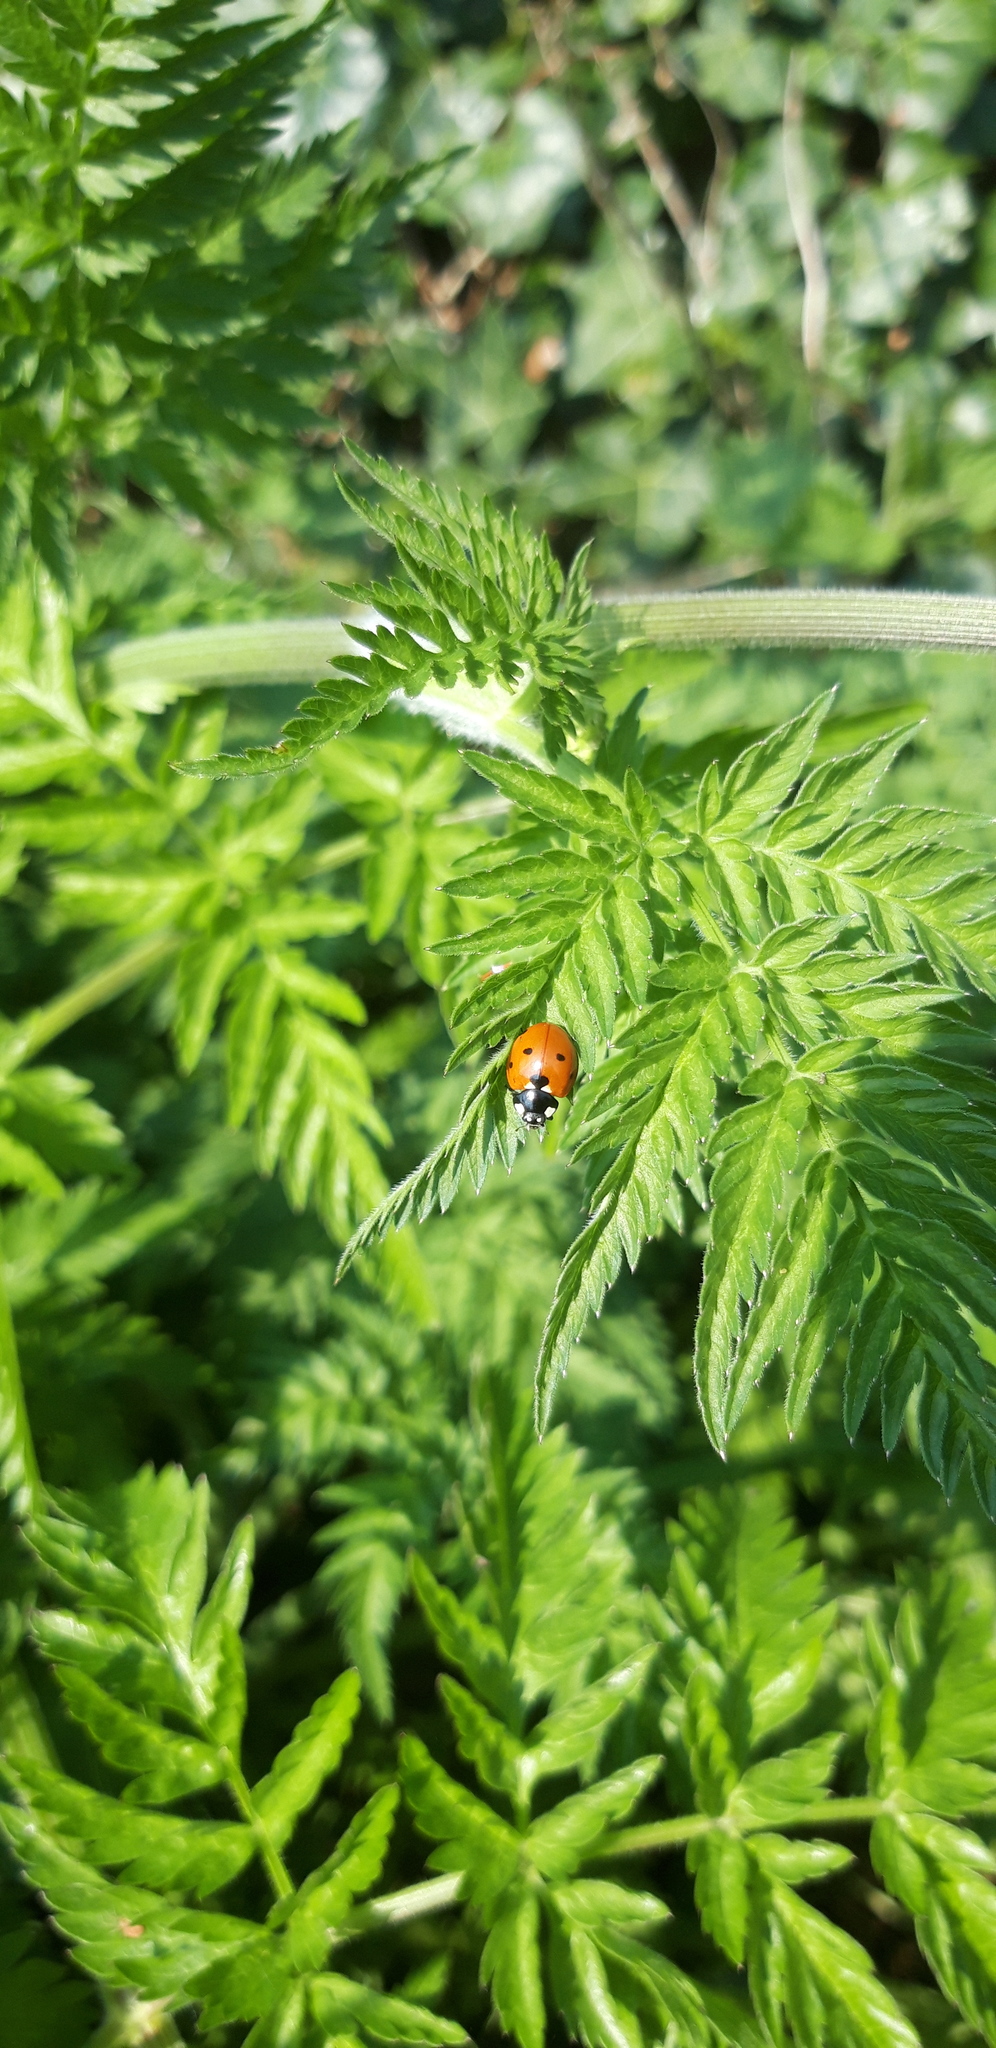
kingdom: Animalia
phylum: Arthropoda
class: Insecta
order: Coleoptera
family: Coccinellidae
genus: Coccinella
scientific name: Coccinella septempunctata
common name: Sevenspotted lady beetle
